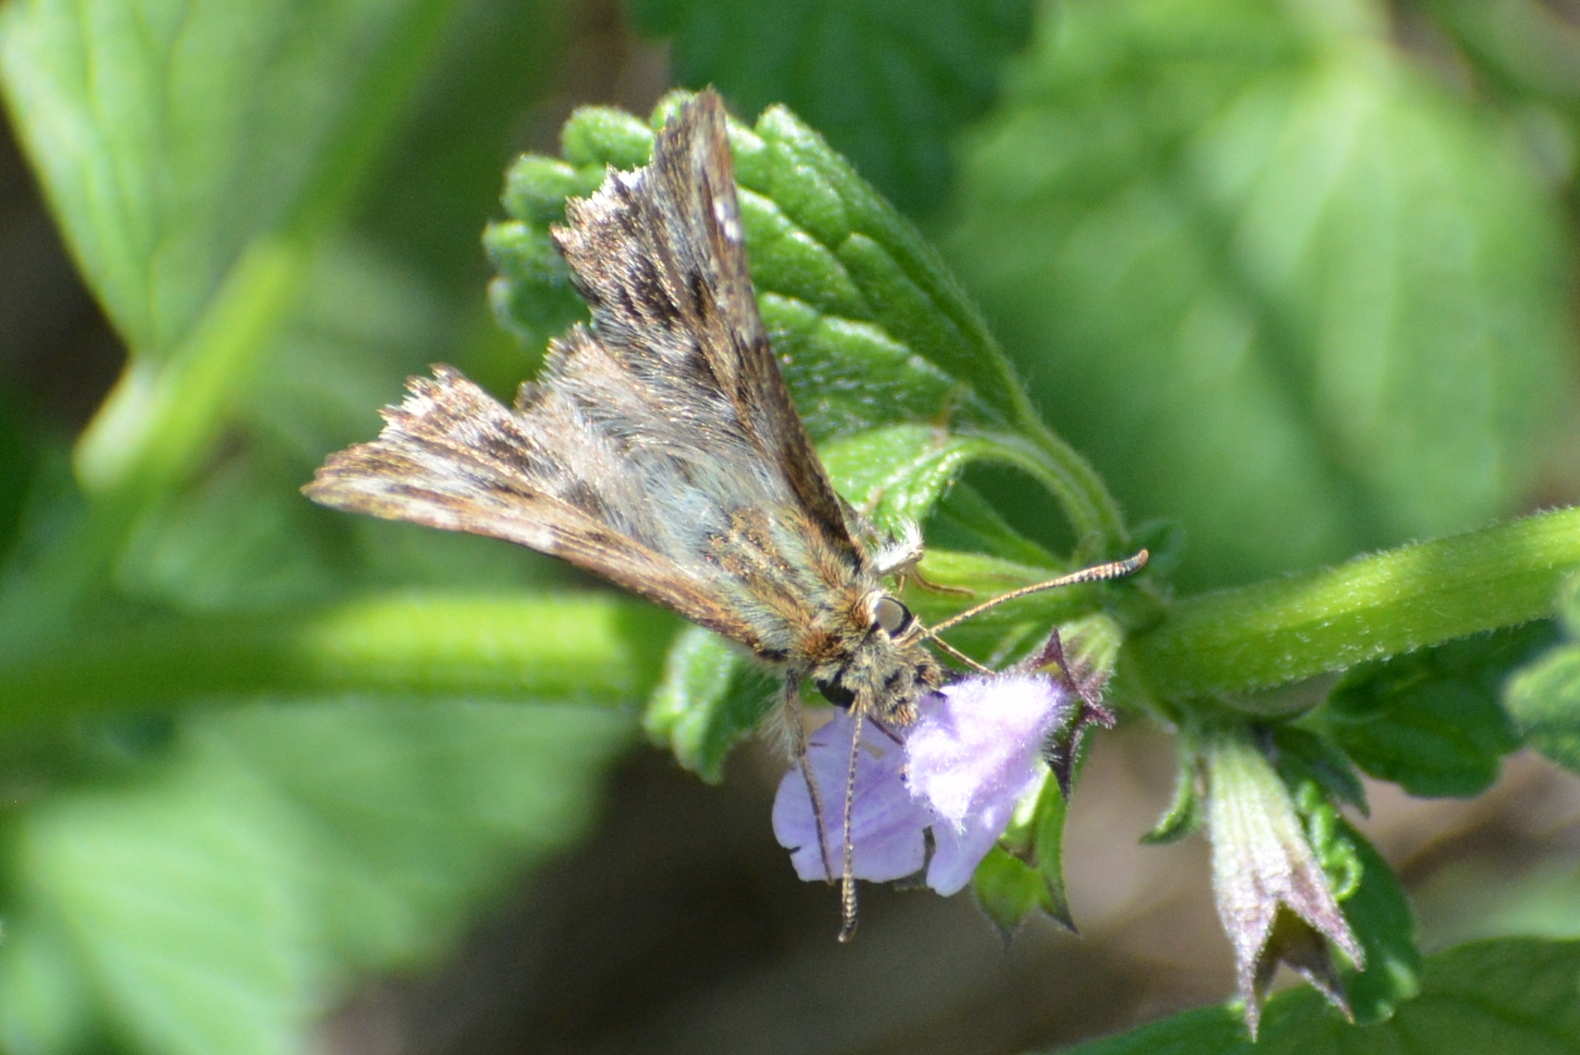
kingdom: Animalia
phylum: Arthropoda
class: Insecta
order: Lepidoptera
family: Hesperiidae
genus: Carcharodus
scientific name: Carcharodus alceae
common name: Mallow skipper
